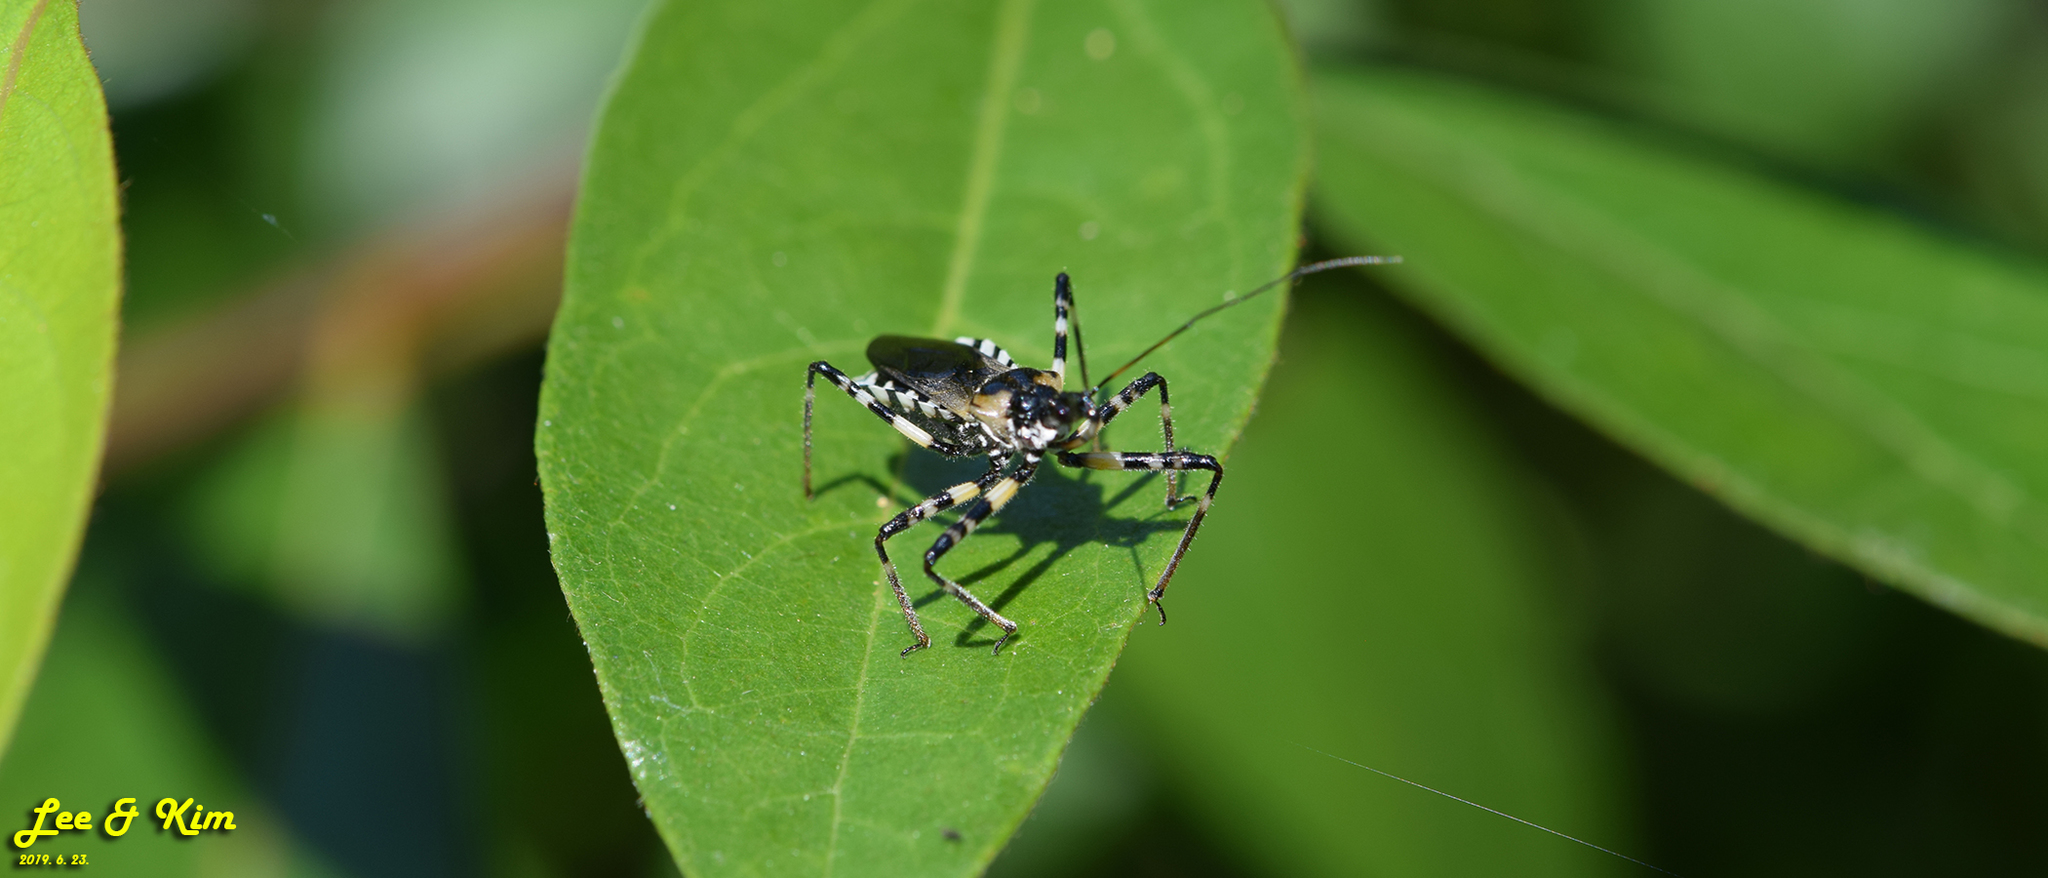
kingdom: Animalia
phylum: Arthropoda
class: Insecta
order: Hemiptera
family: Reduviidae
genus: Sphedanolestes
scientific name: Sphedanolestes impressicollis
